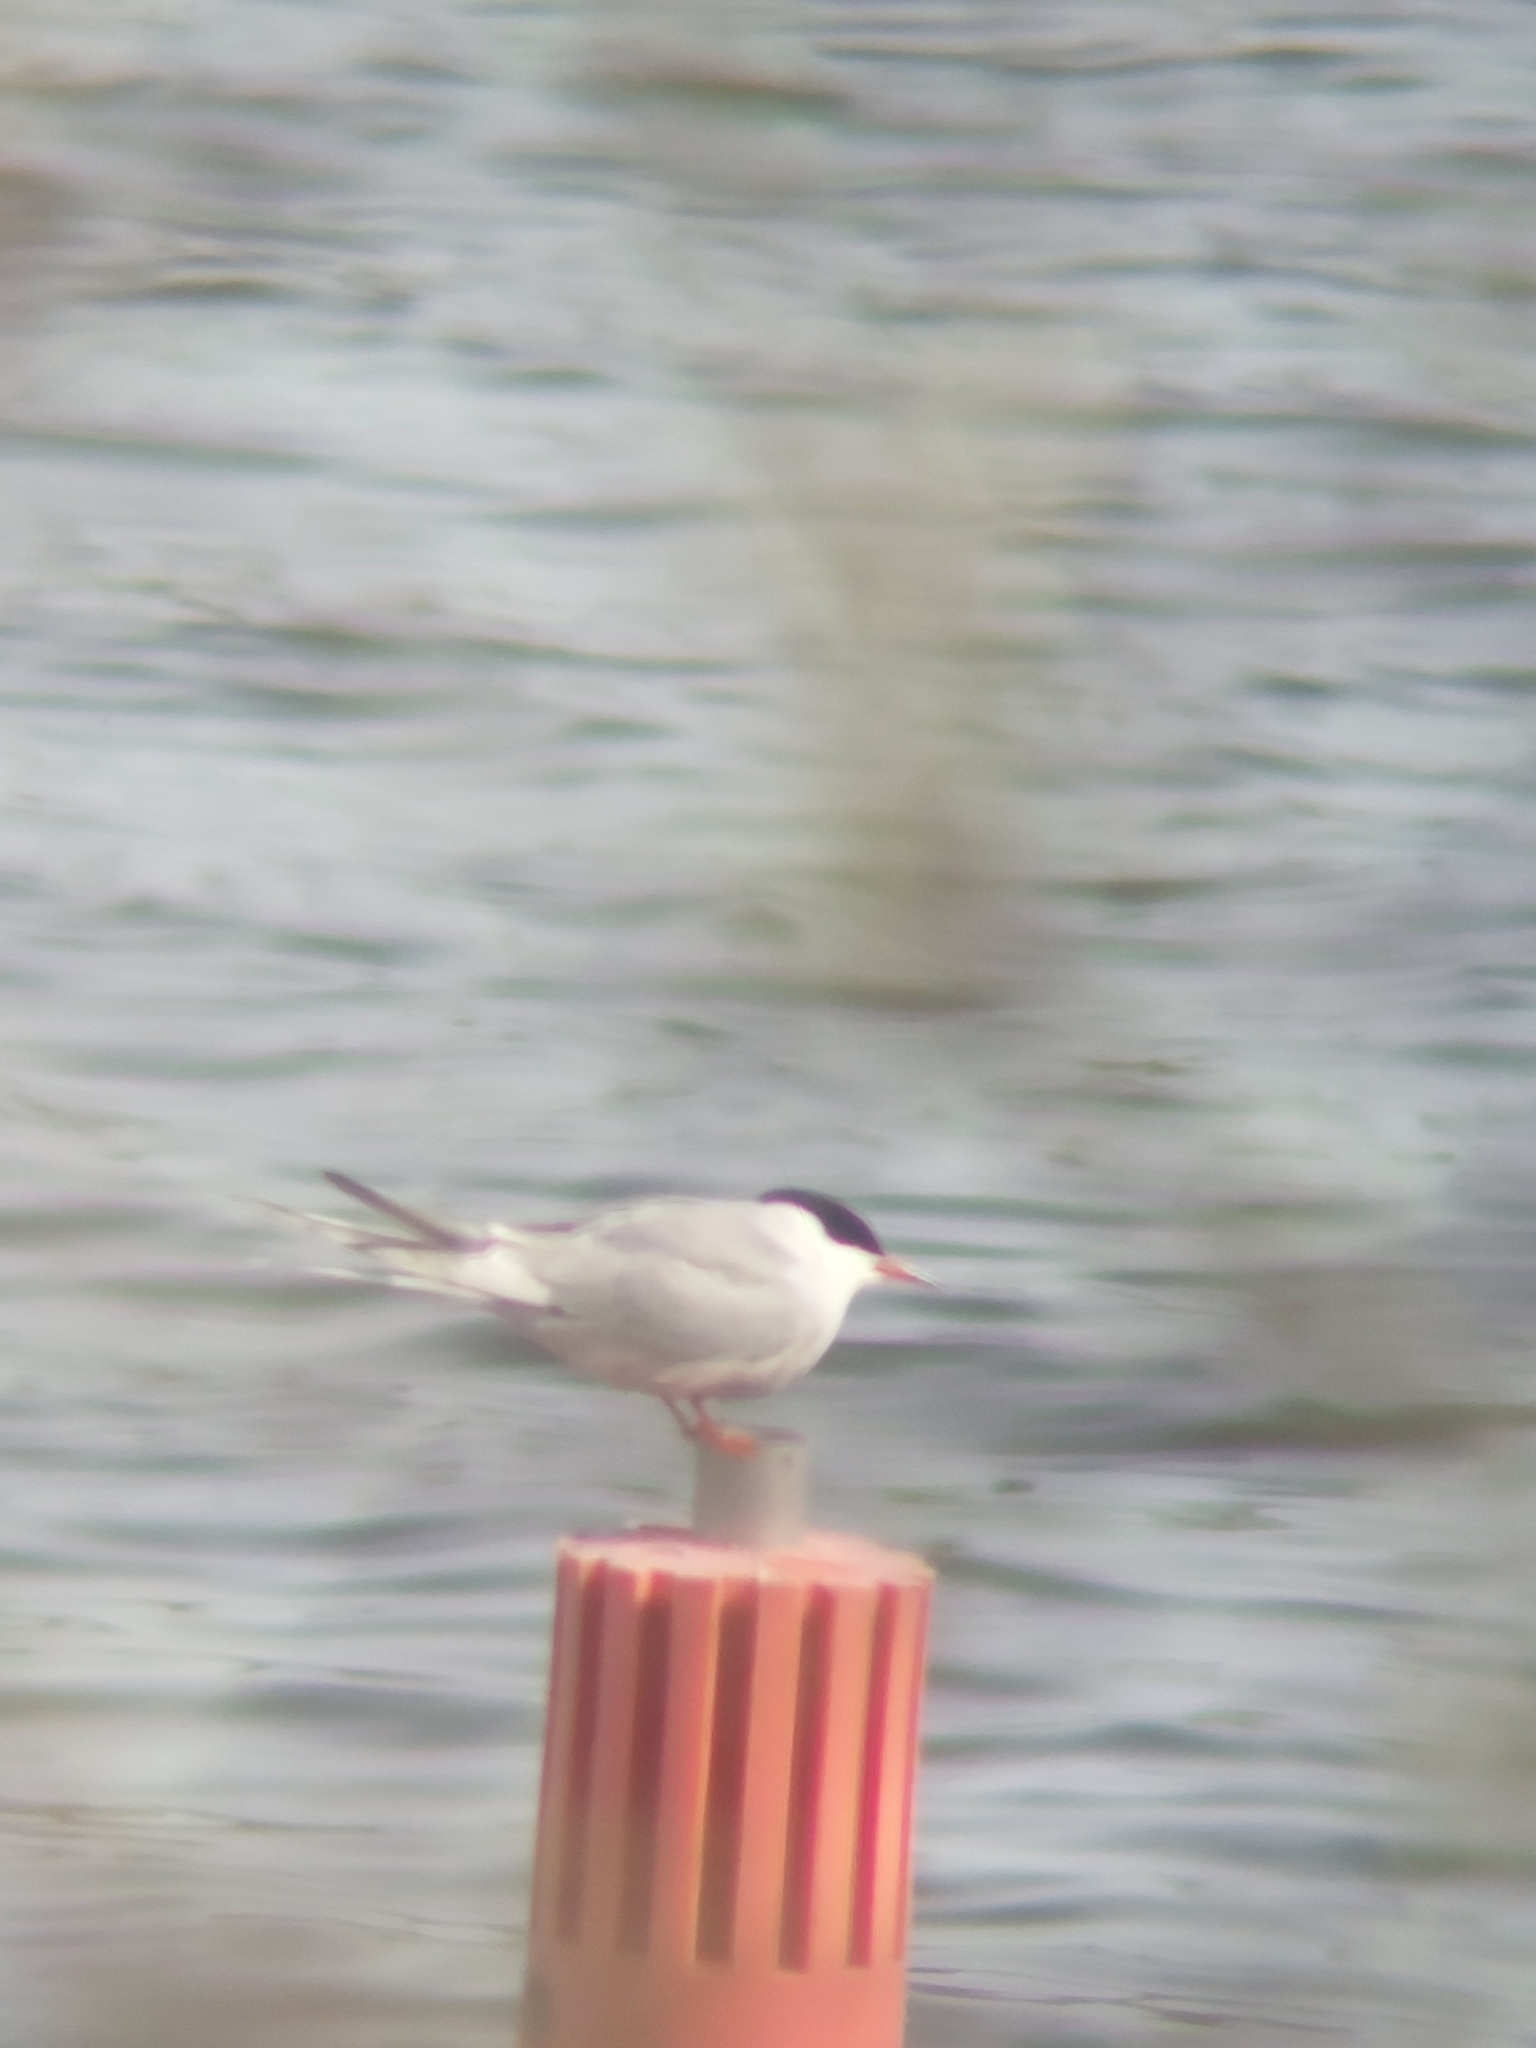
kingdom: Animalia
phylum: Chordata
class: Aves
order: Charadriiformes
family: Laridae
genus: Sterna
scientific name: Sterna hirundo
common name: Common tern
